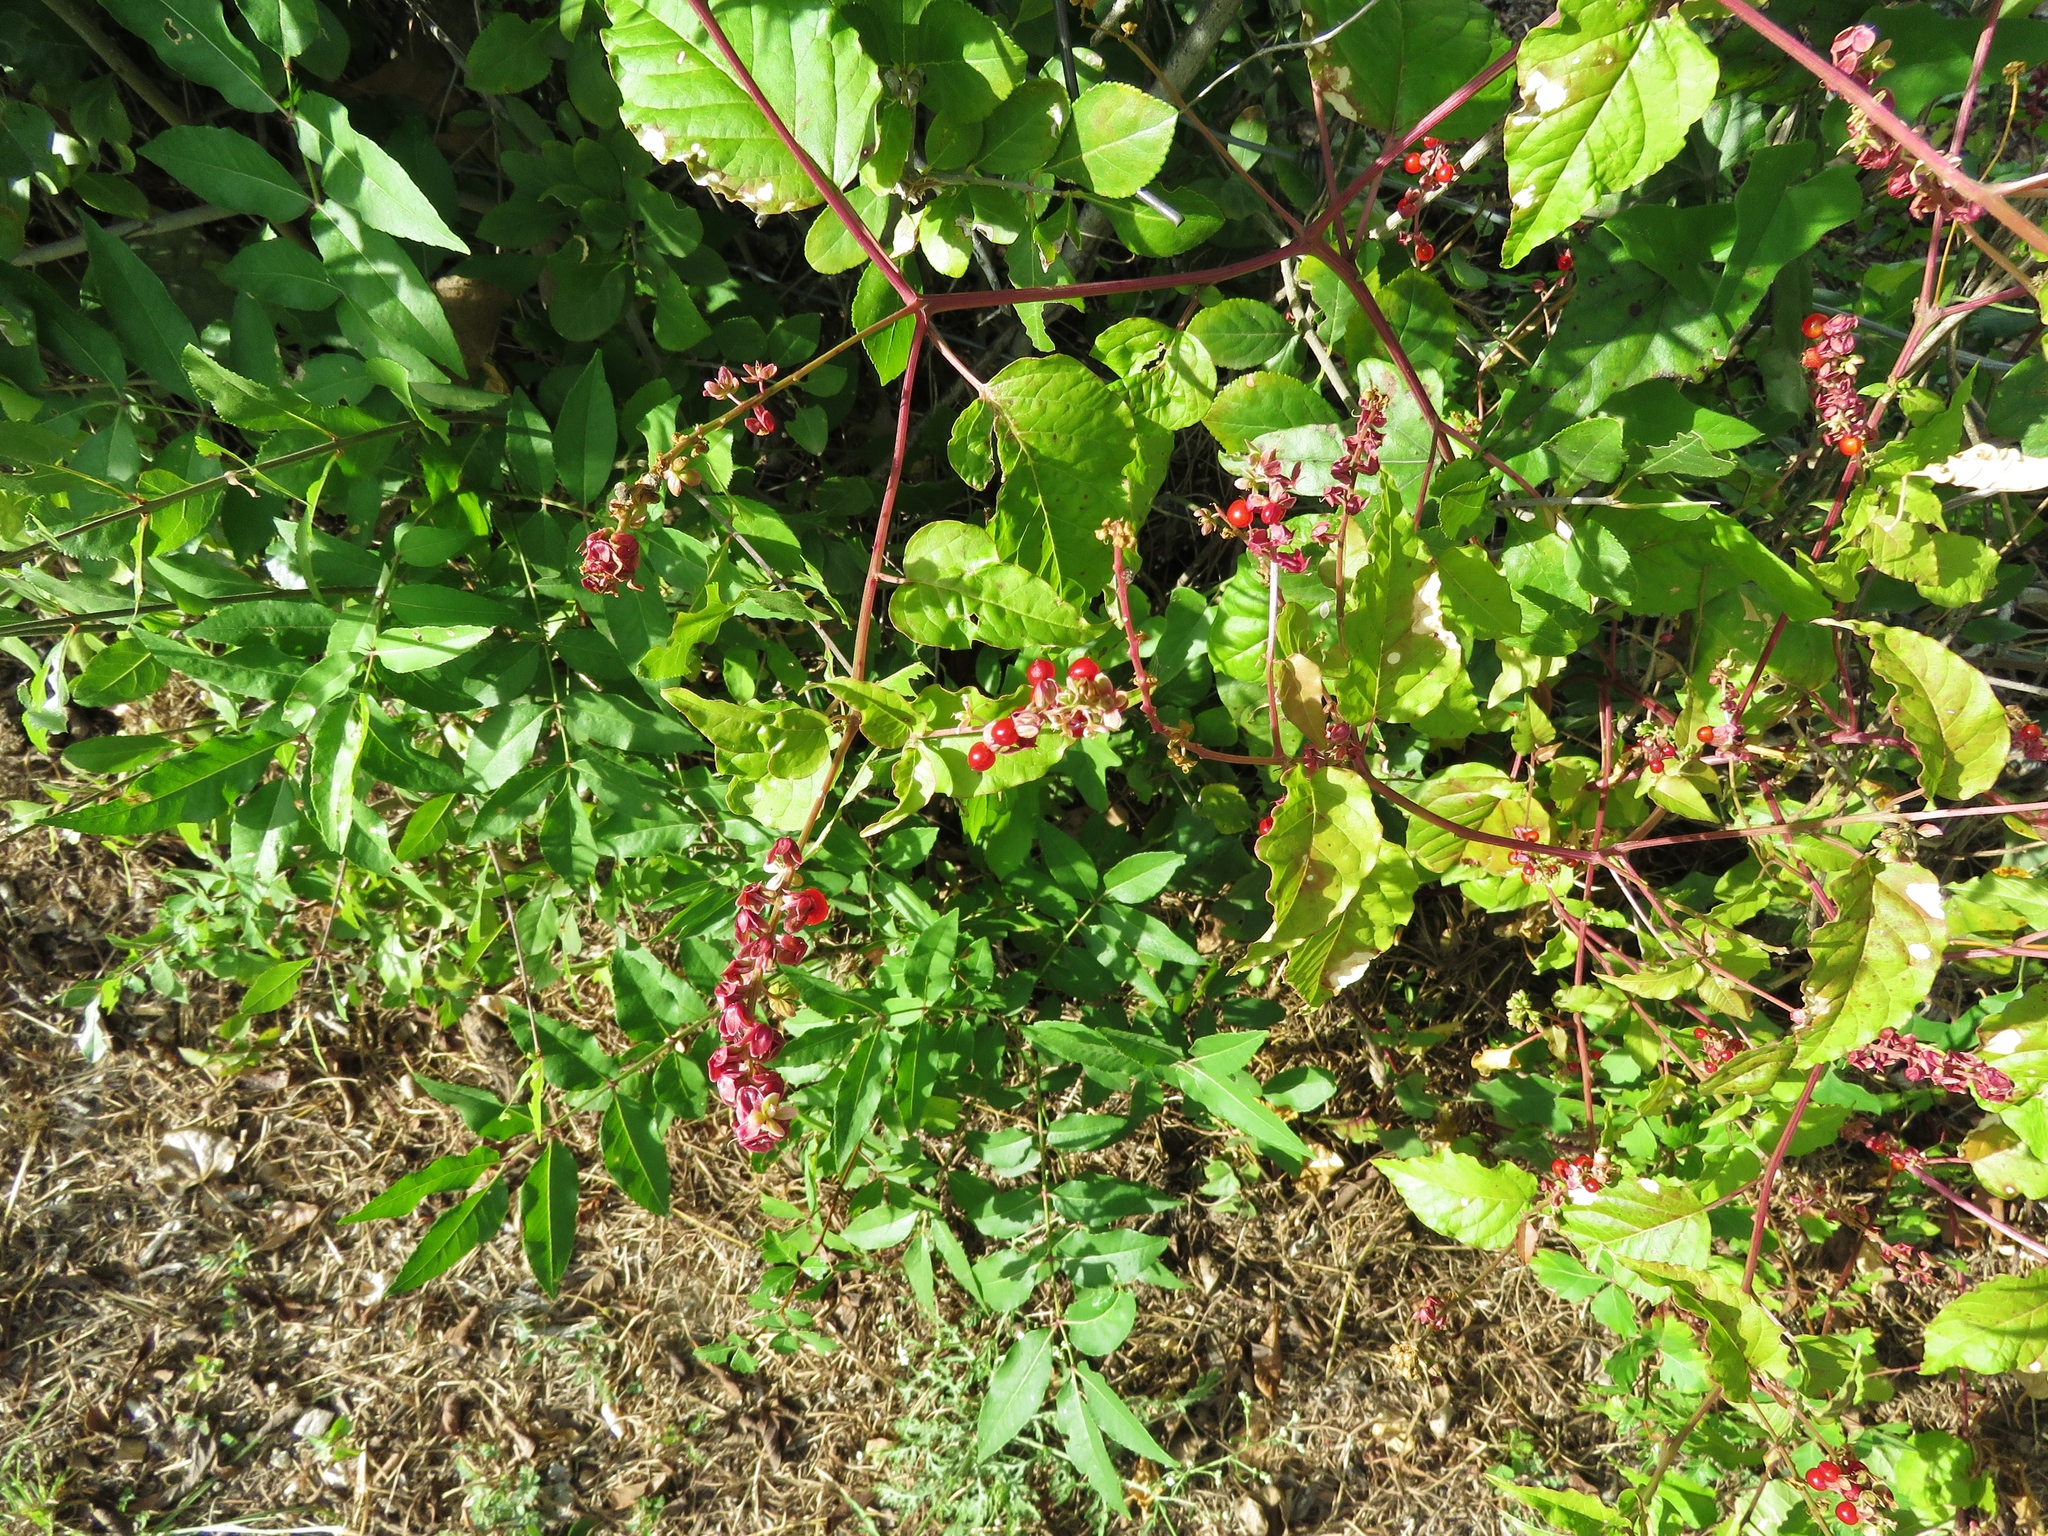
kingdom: Plantae
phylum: Tracheophyta
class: Magnoliopsida
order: Caryophyllales
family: Phytolaccaceae
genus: Rivina
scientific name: Rivina humilis
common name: Rougeplant
